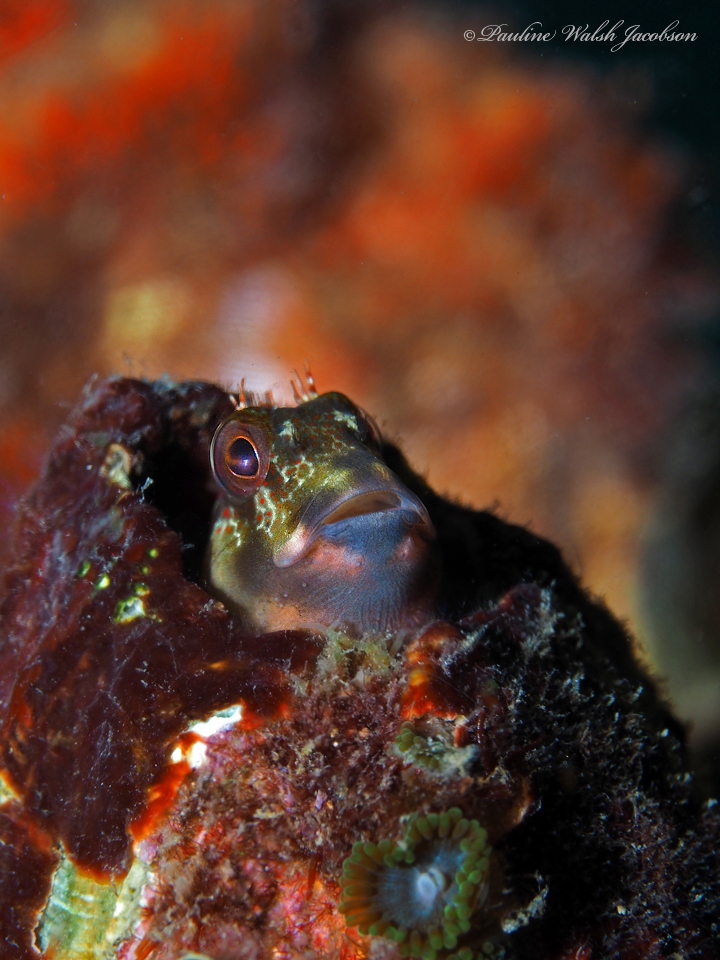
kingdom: Animalia
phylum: Chordata
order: Perciformes
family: Blenniidae
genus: Scartella
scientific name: Scartella cristata
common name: Molly miller
